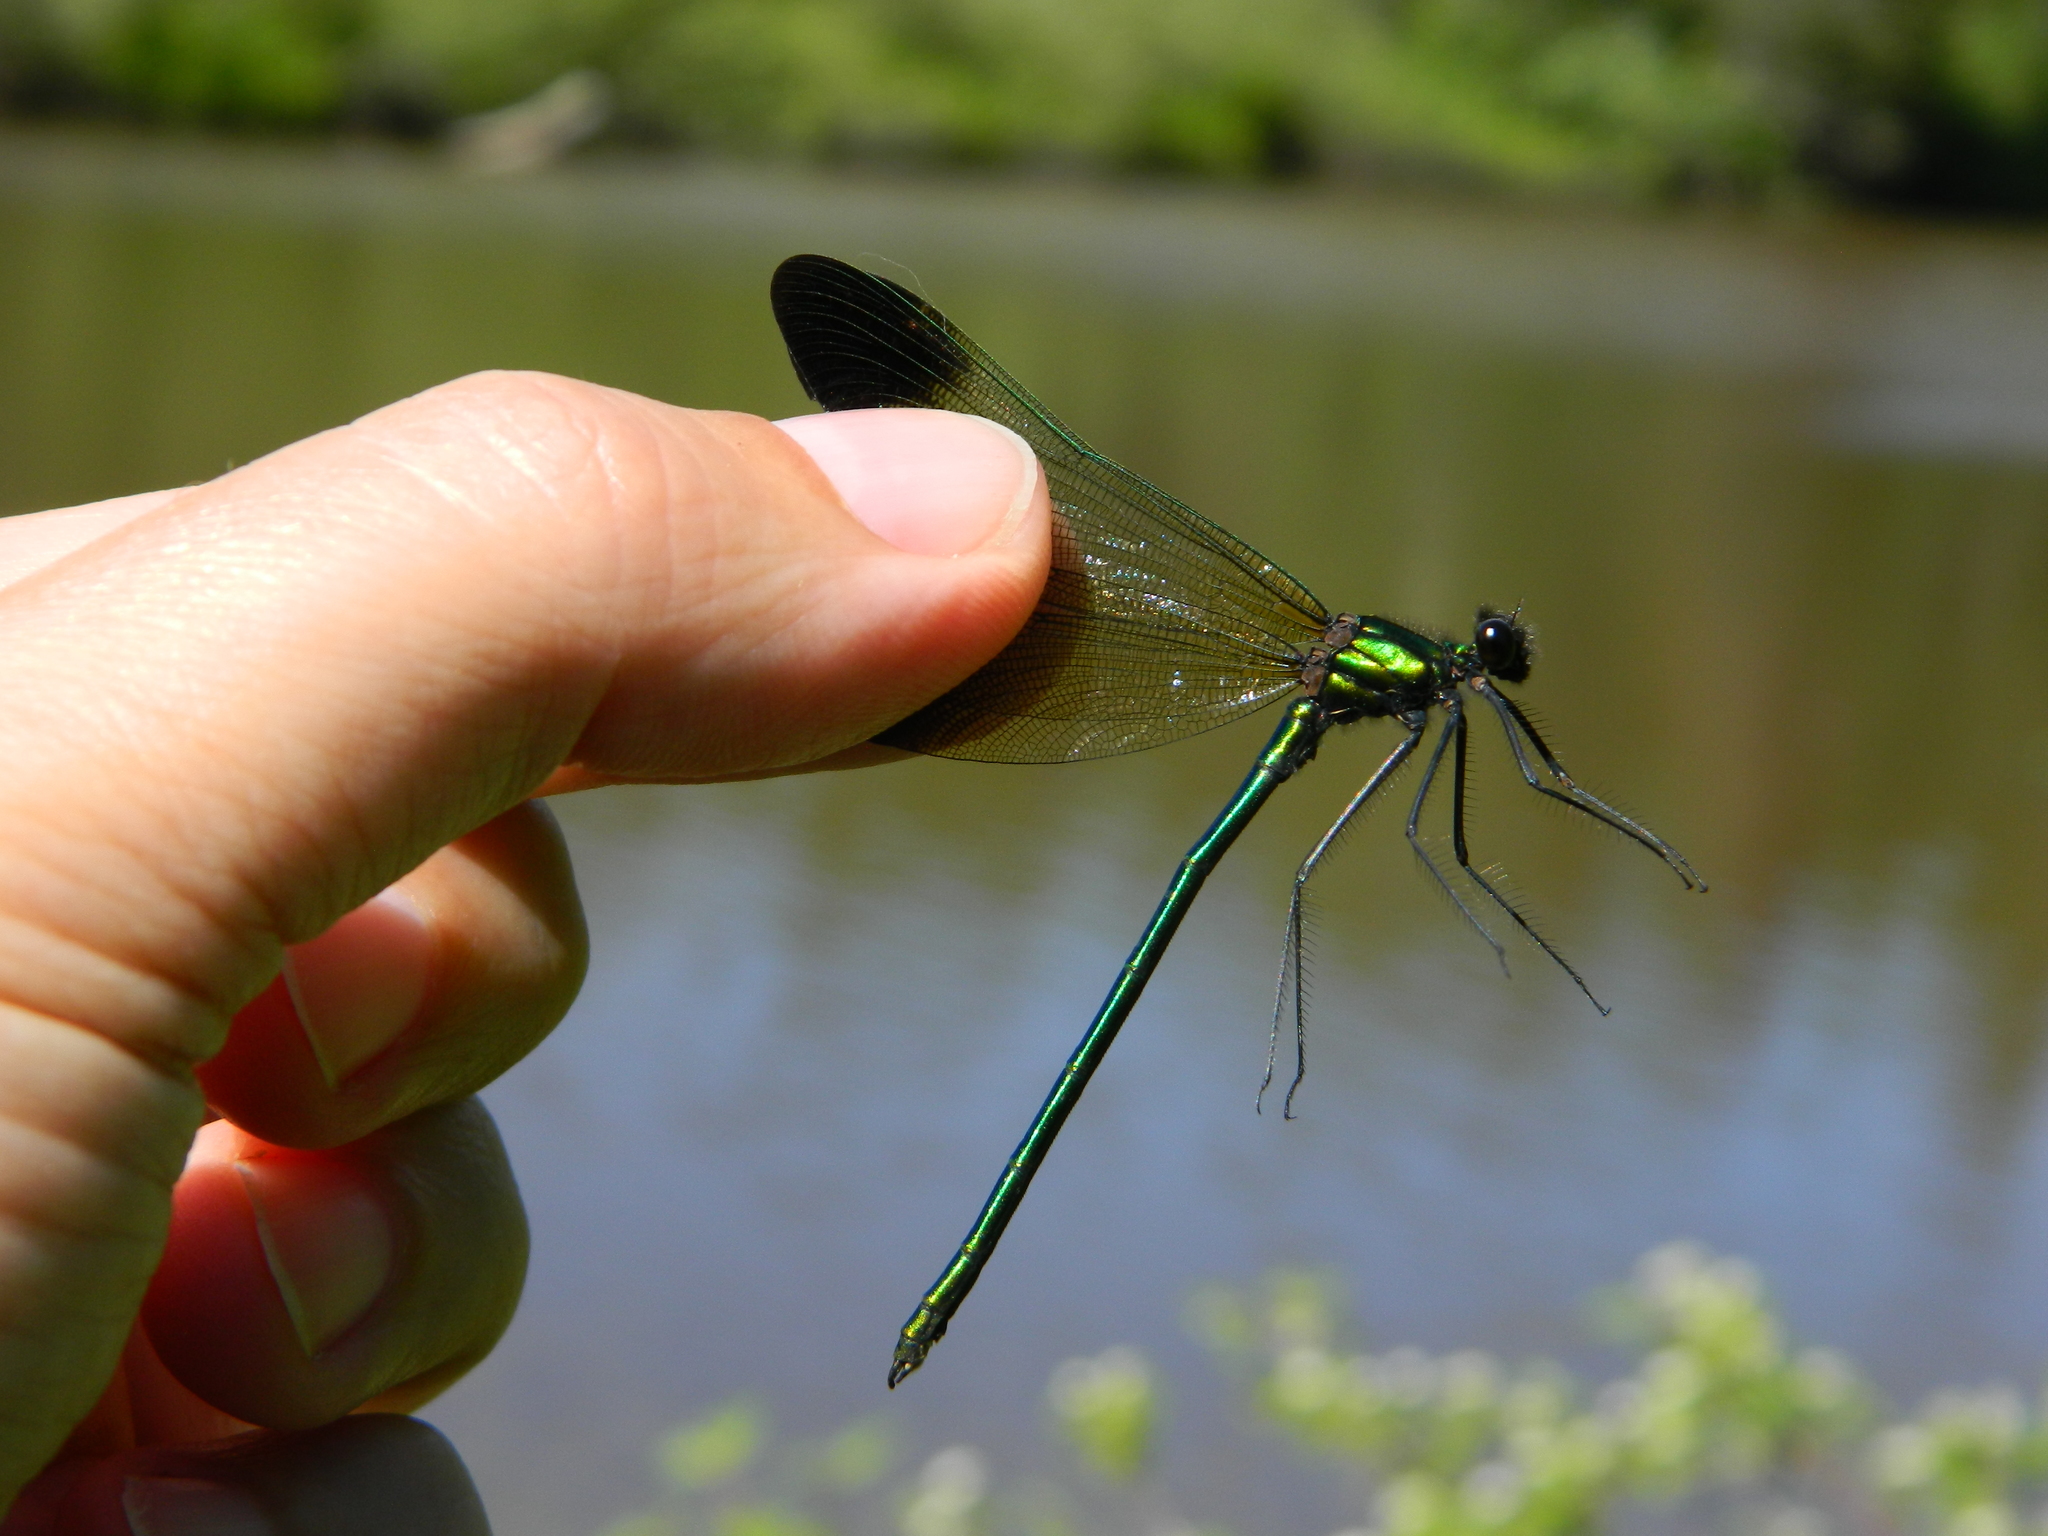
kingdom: Animalia
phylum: Arthropoda
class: Insecta
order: Odonata
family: Calopterygidae
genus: Calopteryx
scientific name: Calopteryx aequabilis
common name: River jewelwing
